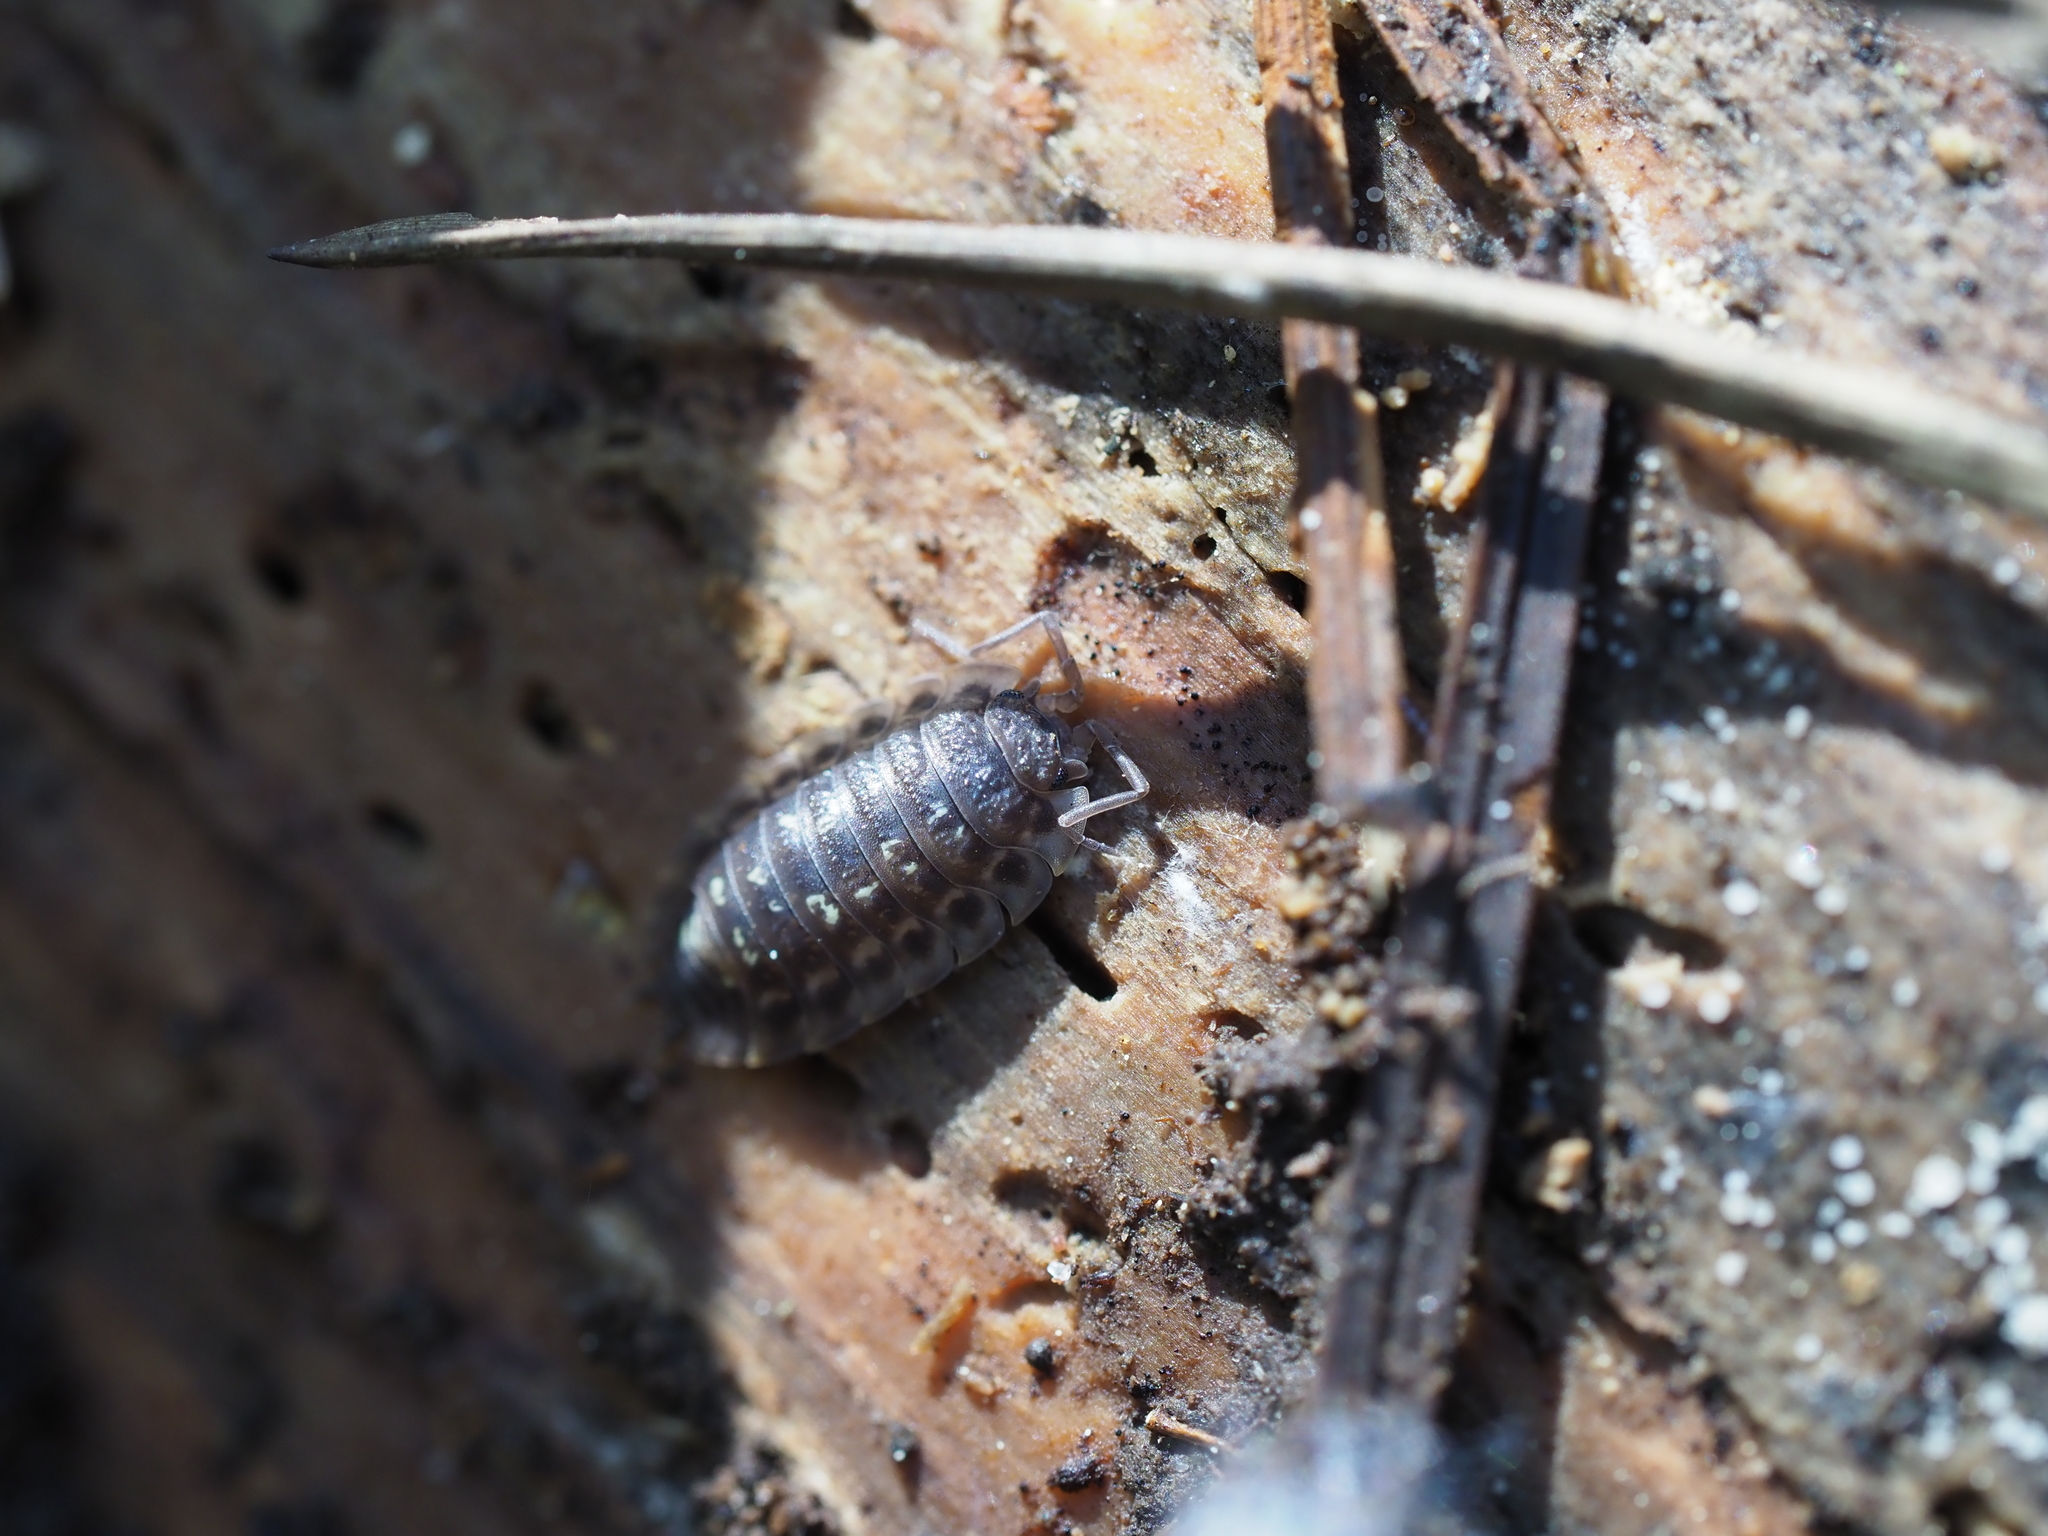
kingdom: Animalia
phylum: Arthropoda
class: Malacostraca
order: Isopoda
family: Oniscidae
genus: Oniscus
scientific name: Oniscus asellus
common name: Common shiny woodlouse
